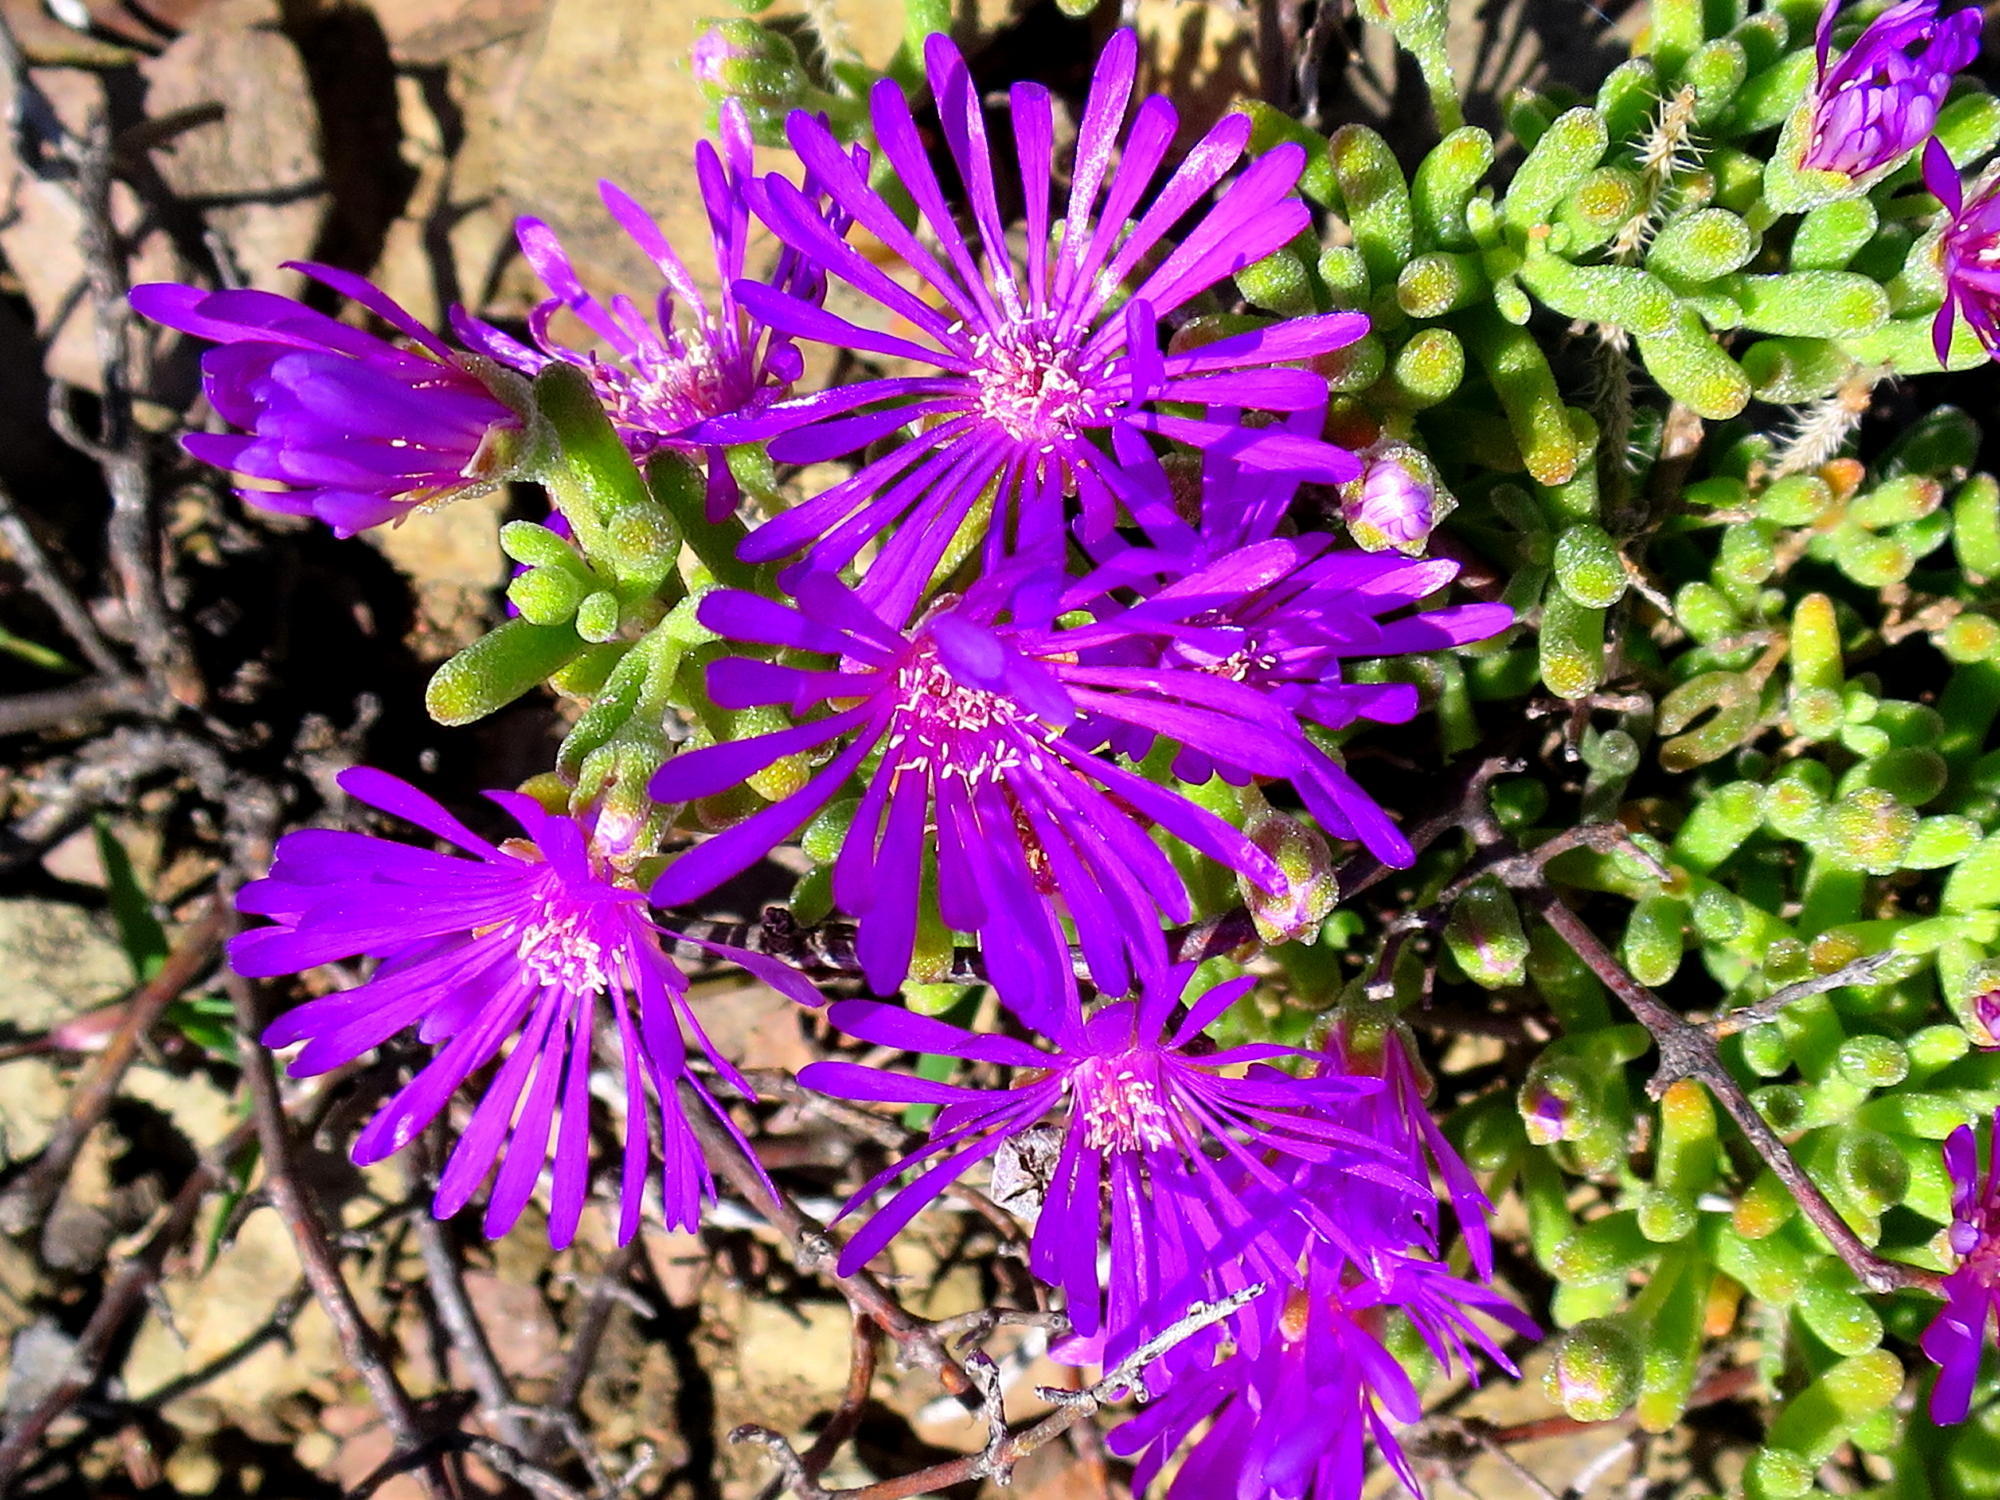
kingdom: Plantae
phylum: Tracheophyta
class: Magnoliopsida
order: Caryophyllales
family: Aizoaceae
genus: Drosanthemum
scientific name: Drosanthemum hispidum
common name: Hairy dewflower
